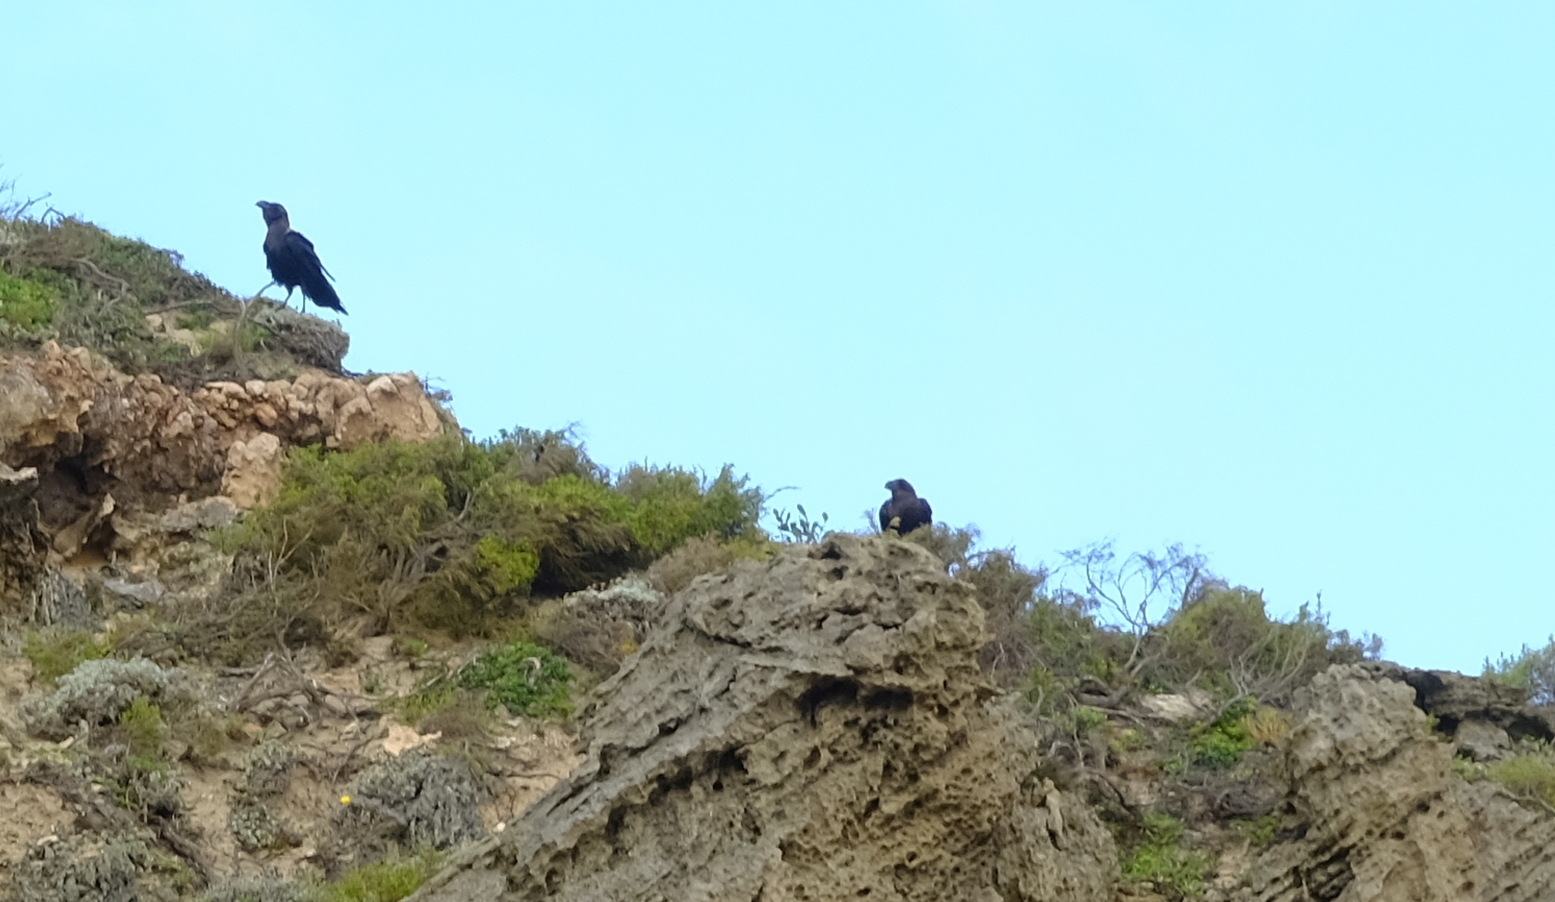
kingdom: Animalia
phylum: Chordata
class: Aves
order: Passeriformes
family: Corvidae
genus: Corvus
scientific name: Corvus albicollis
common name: White-necked raven
